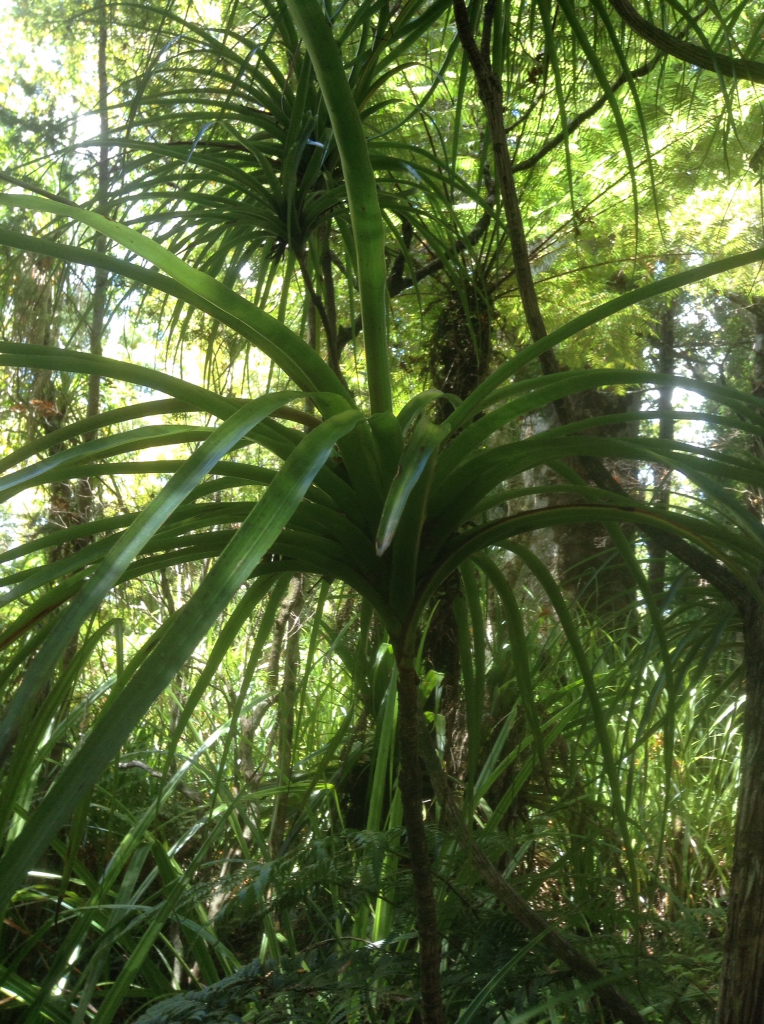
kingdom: Plantae
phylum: Tracheophyta
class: Magnoliopsida
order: Ericales
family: Ericaceae
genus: Dracophyllum
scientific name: Dracophyllum latifolium
